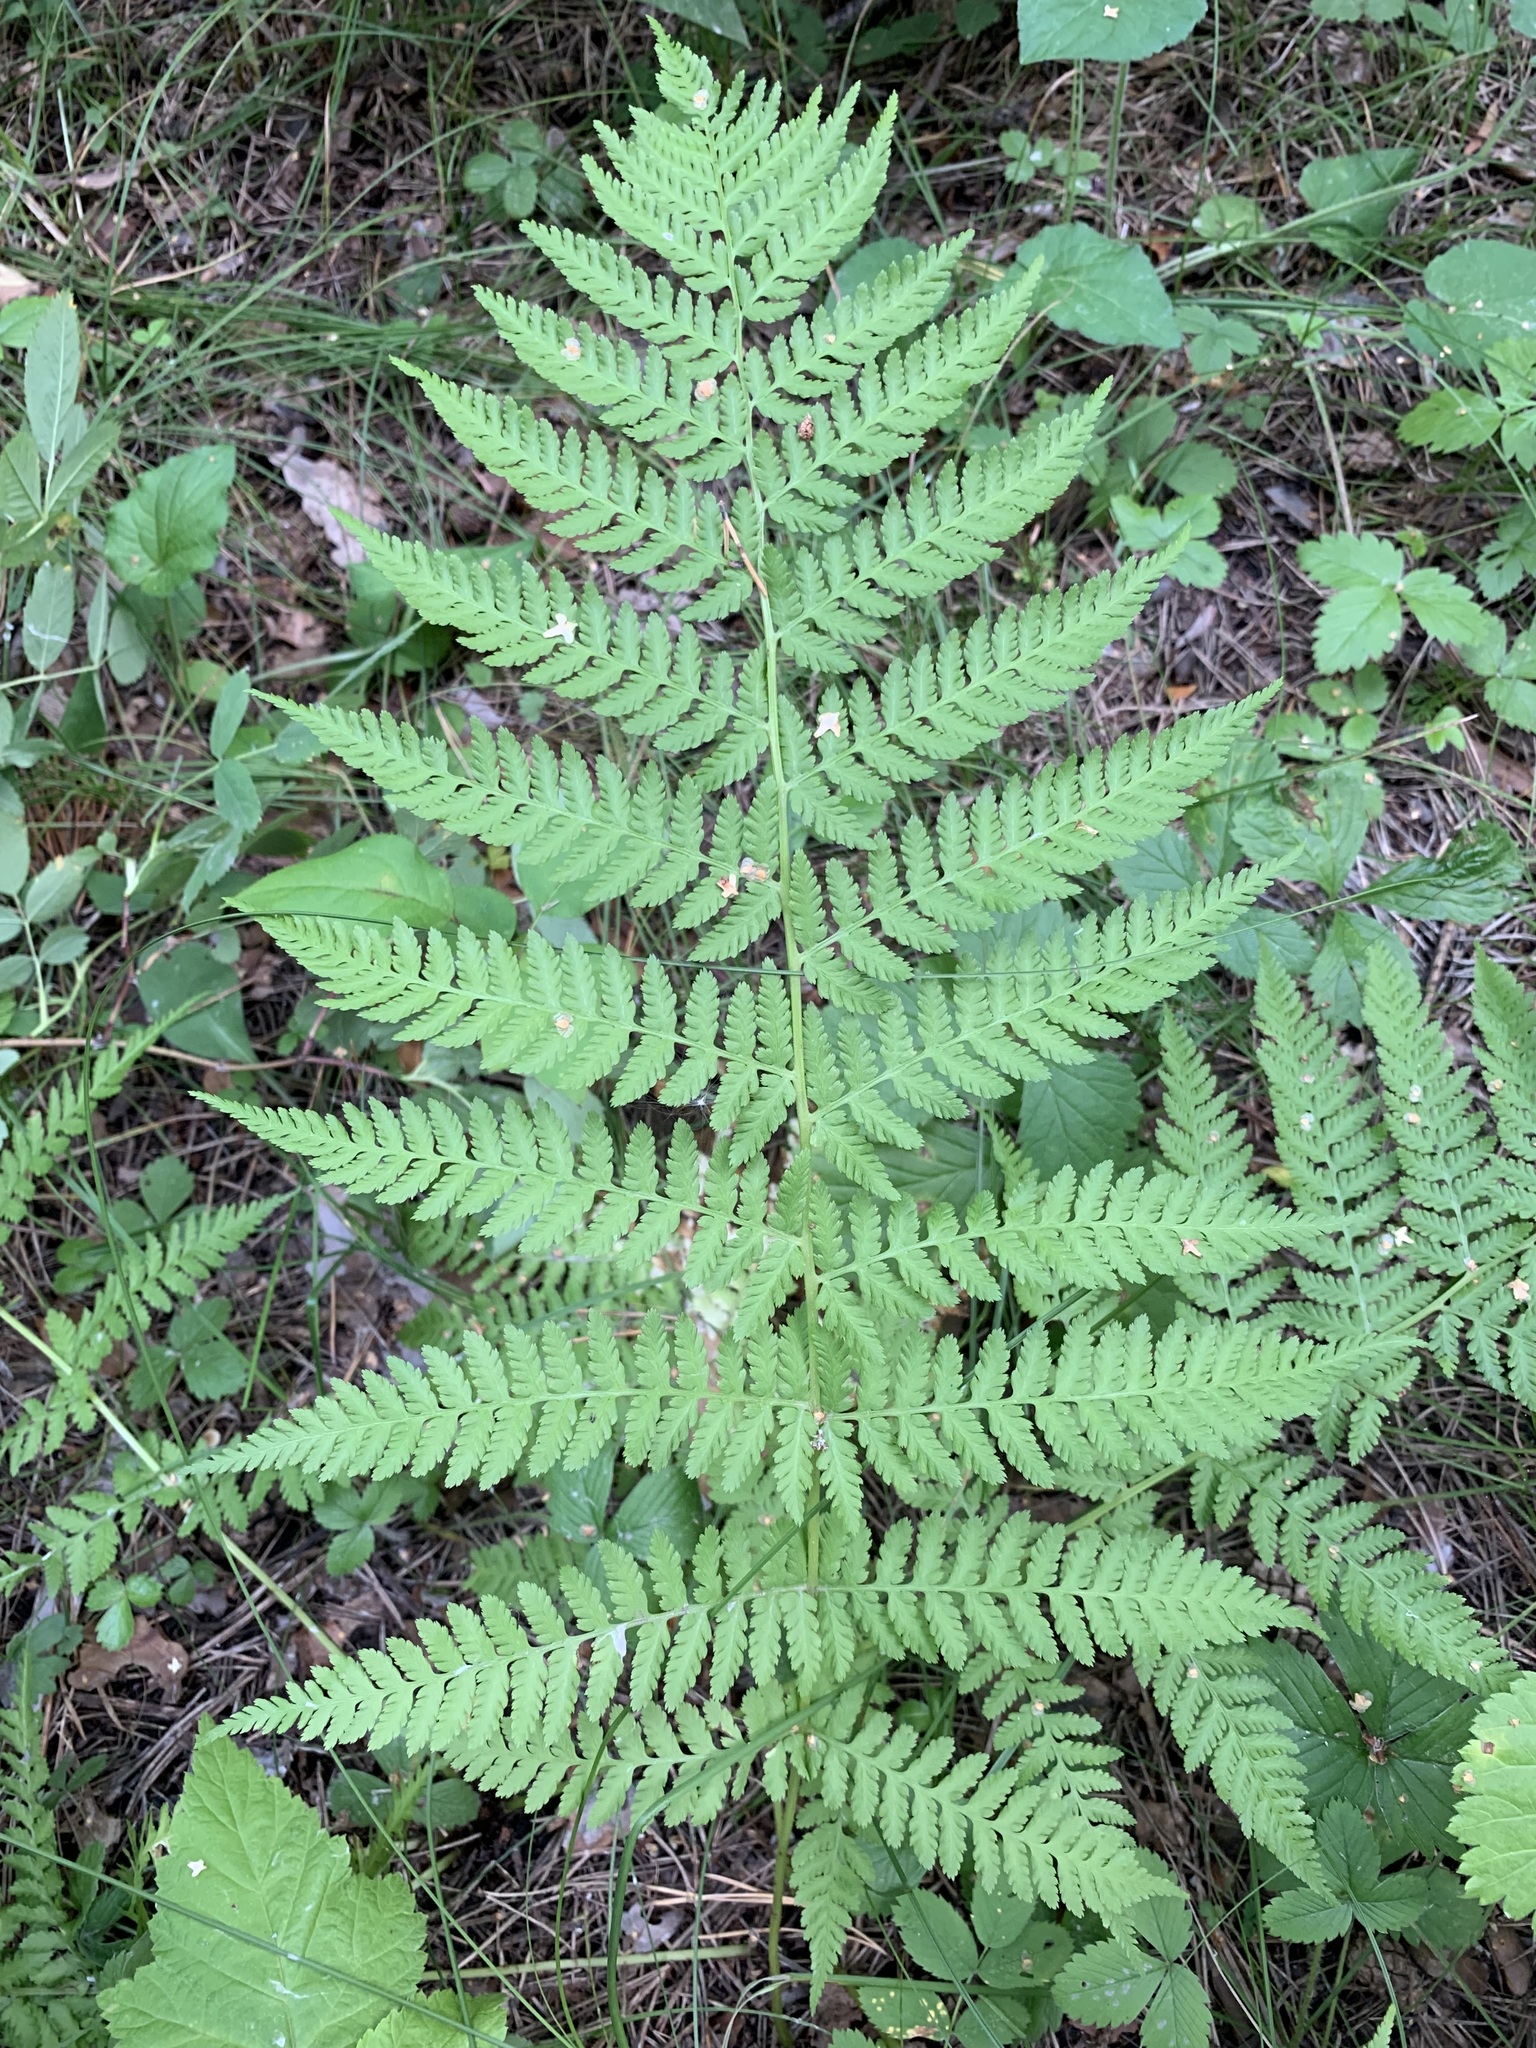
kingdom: Plantae
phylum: Tracheophyta
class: Polypodiopsida
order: Polypodiales
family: Athyriaceae
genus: Athyrium
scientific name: Athyrium filix-femina
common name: Lady fern
